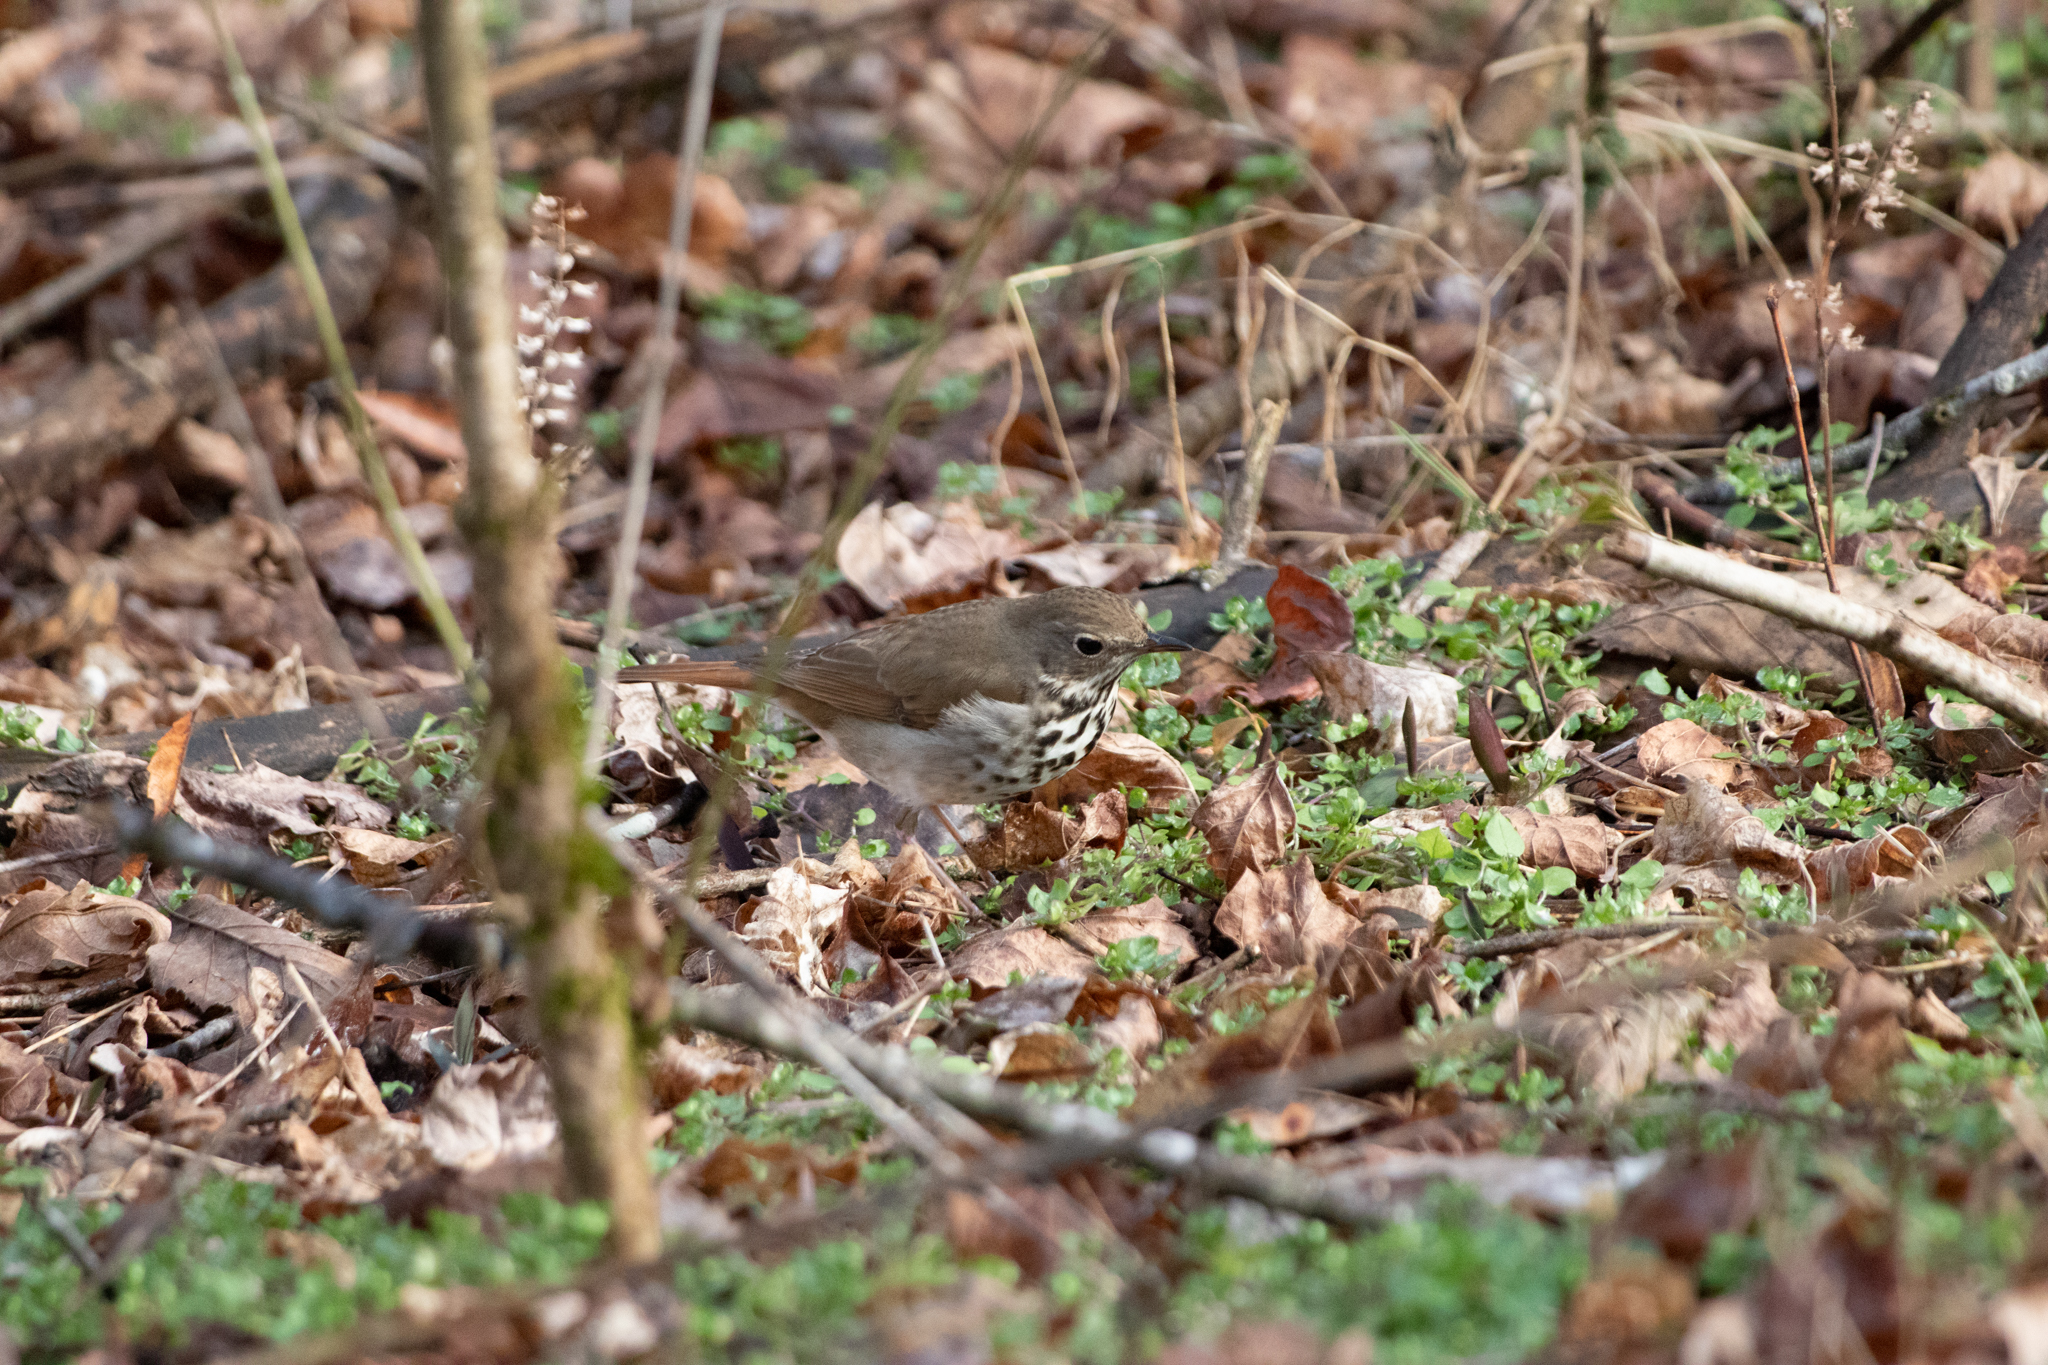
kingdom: Animalia
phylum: Chordata
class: Aves
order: Passeriformes
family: Turdidae
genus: Catharus
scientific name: Catharus guttatus
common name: Hermit thrush
